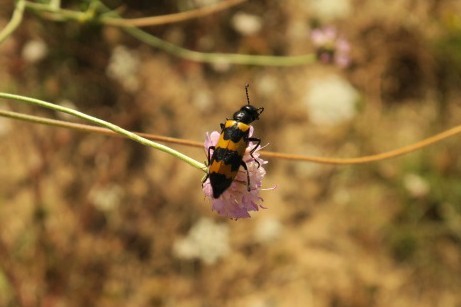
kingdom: Animalia
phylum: Arthropoda
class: Insecta
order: Coleoptera
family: Meloidae
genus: Mylabris
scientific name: Mylabris variabilis
